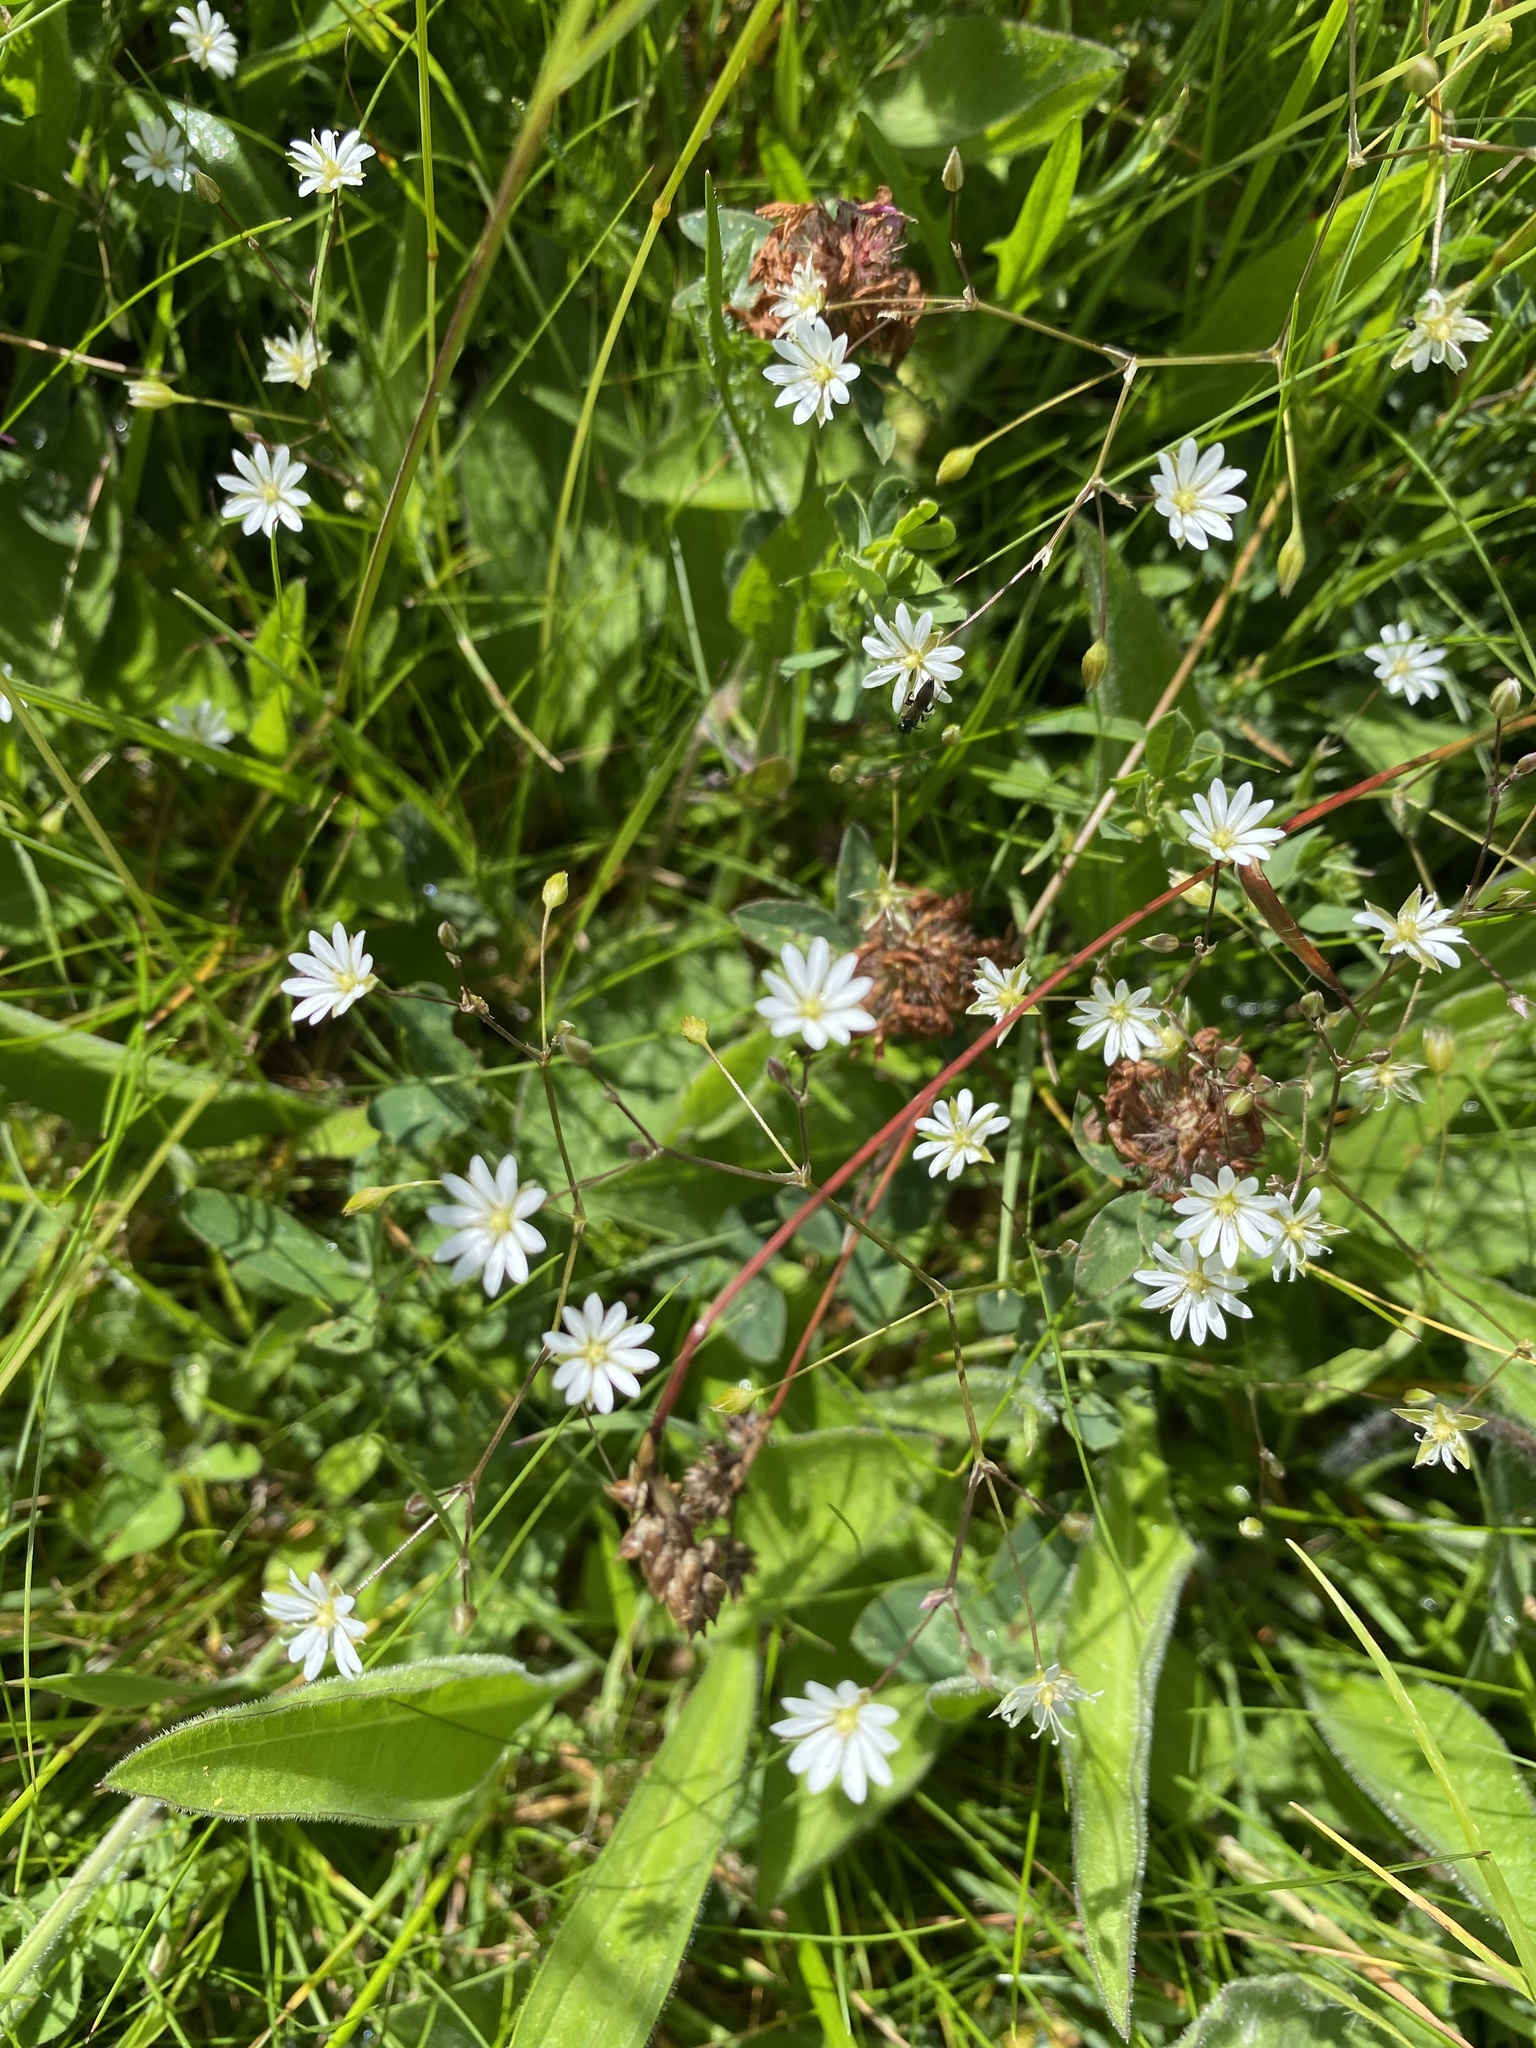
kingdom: Plantae
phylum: Tracheophyta
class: Magnoliopsida
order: Caryophyllales
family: Caryophyllaceae
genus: Stellaria
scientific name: Stellaria graminea
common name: Grass-like starwort
